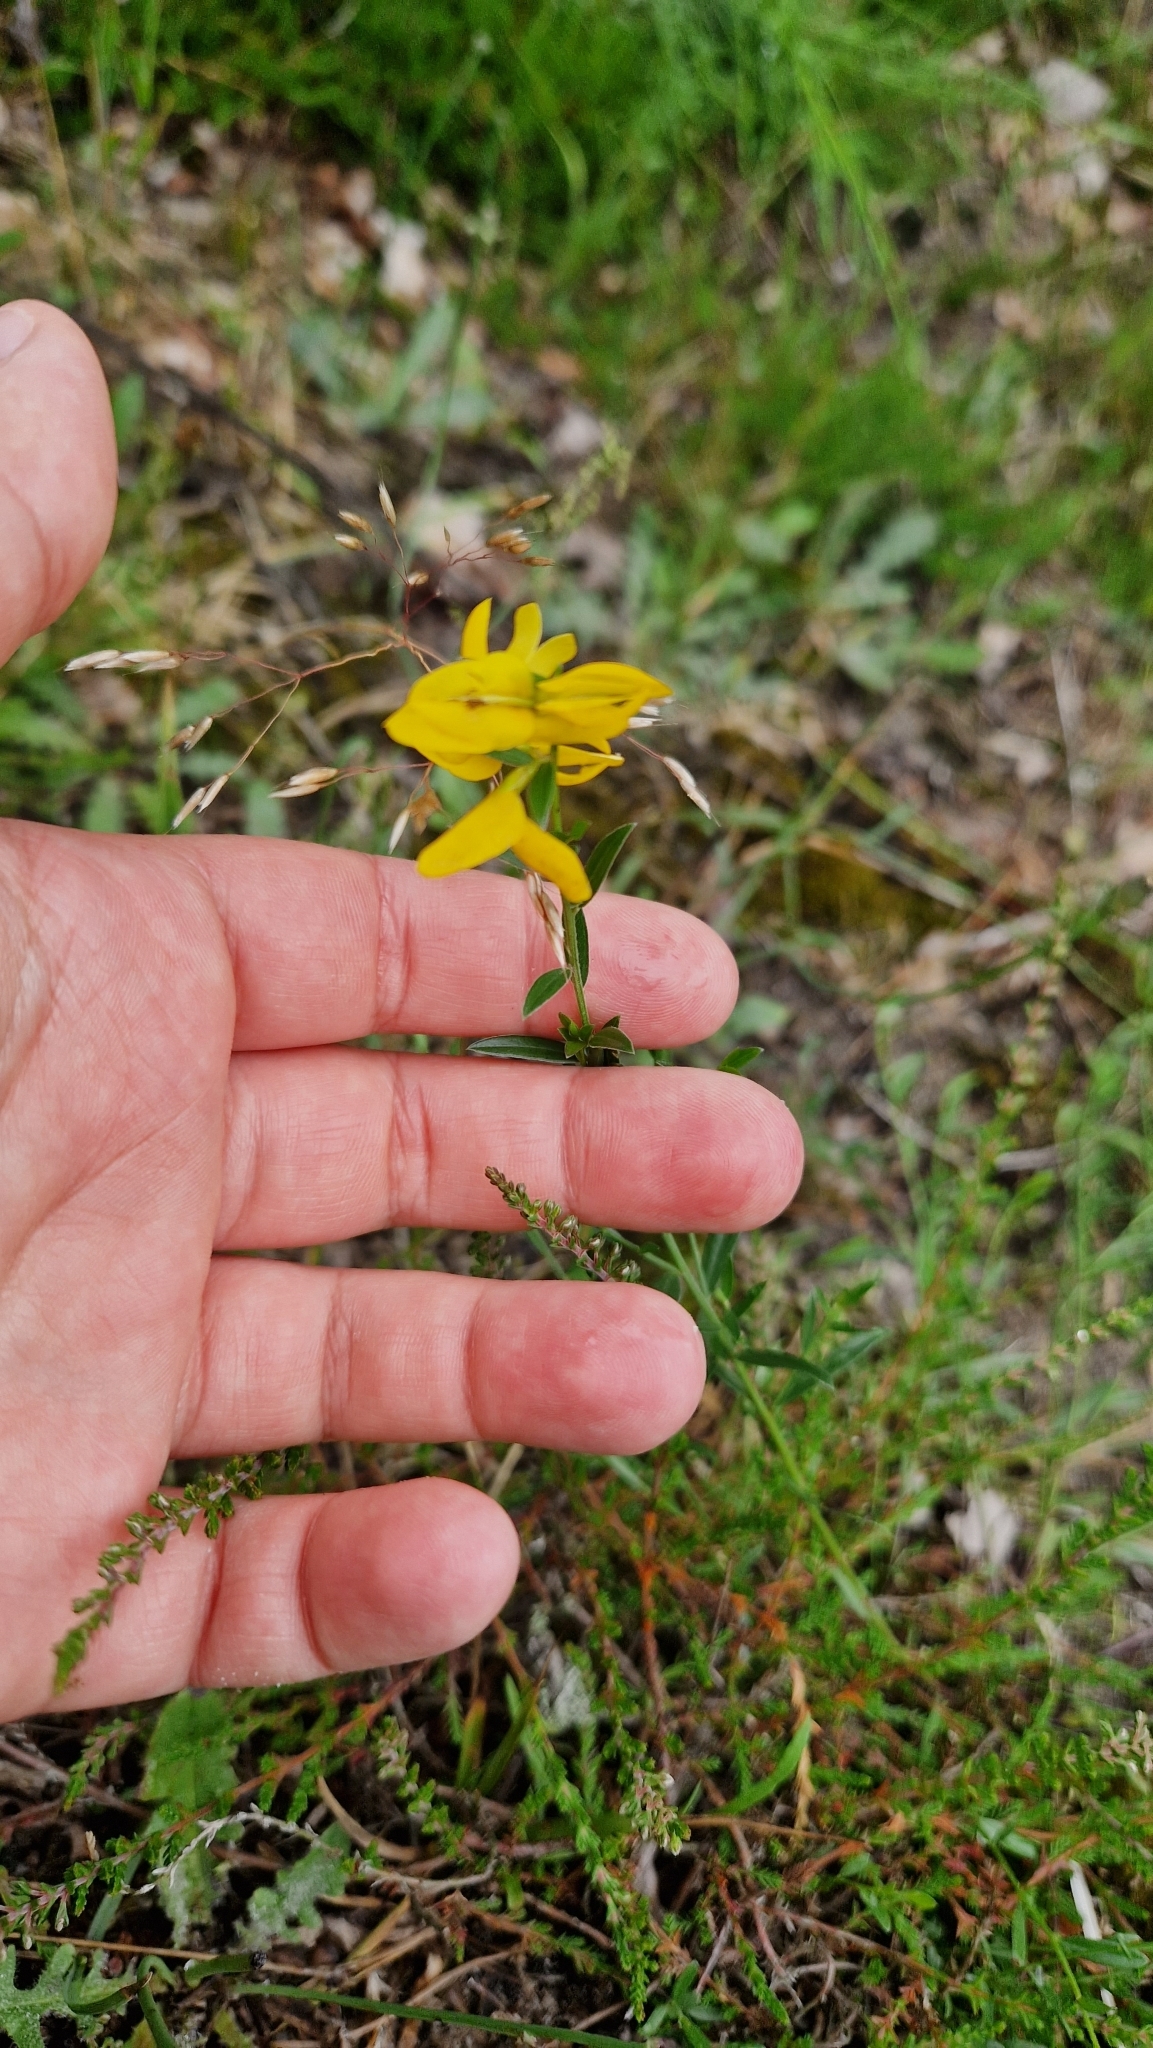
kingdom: Plantae
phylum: Tracheophyta
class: Magnoliopsida
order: Fabales
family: Fabaceae
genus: Genista
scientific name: Genista tinctoria
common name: Dyer's greenweed
